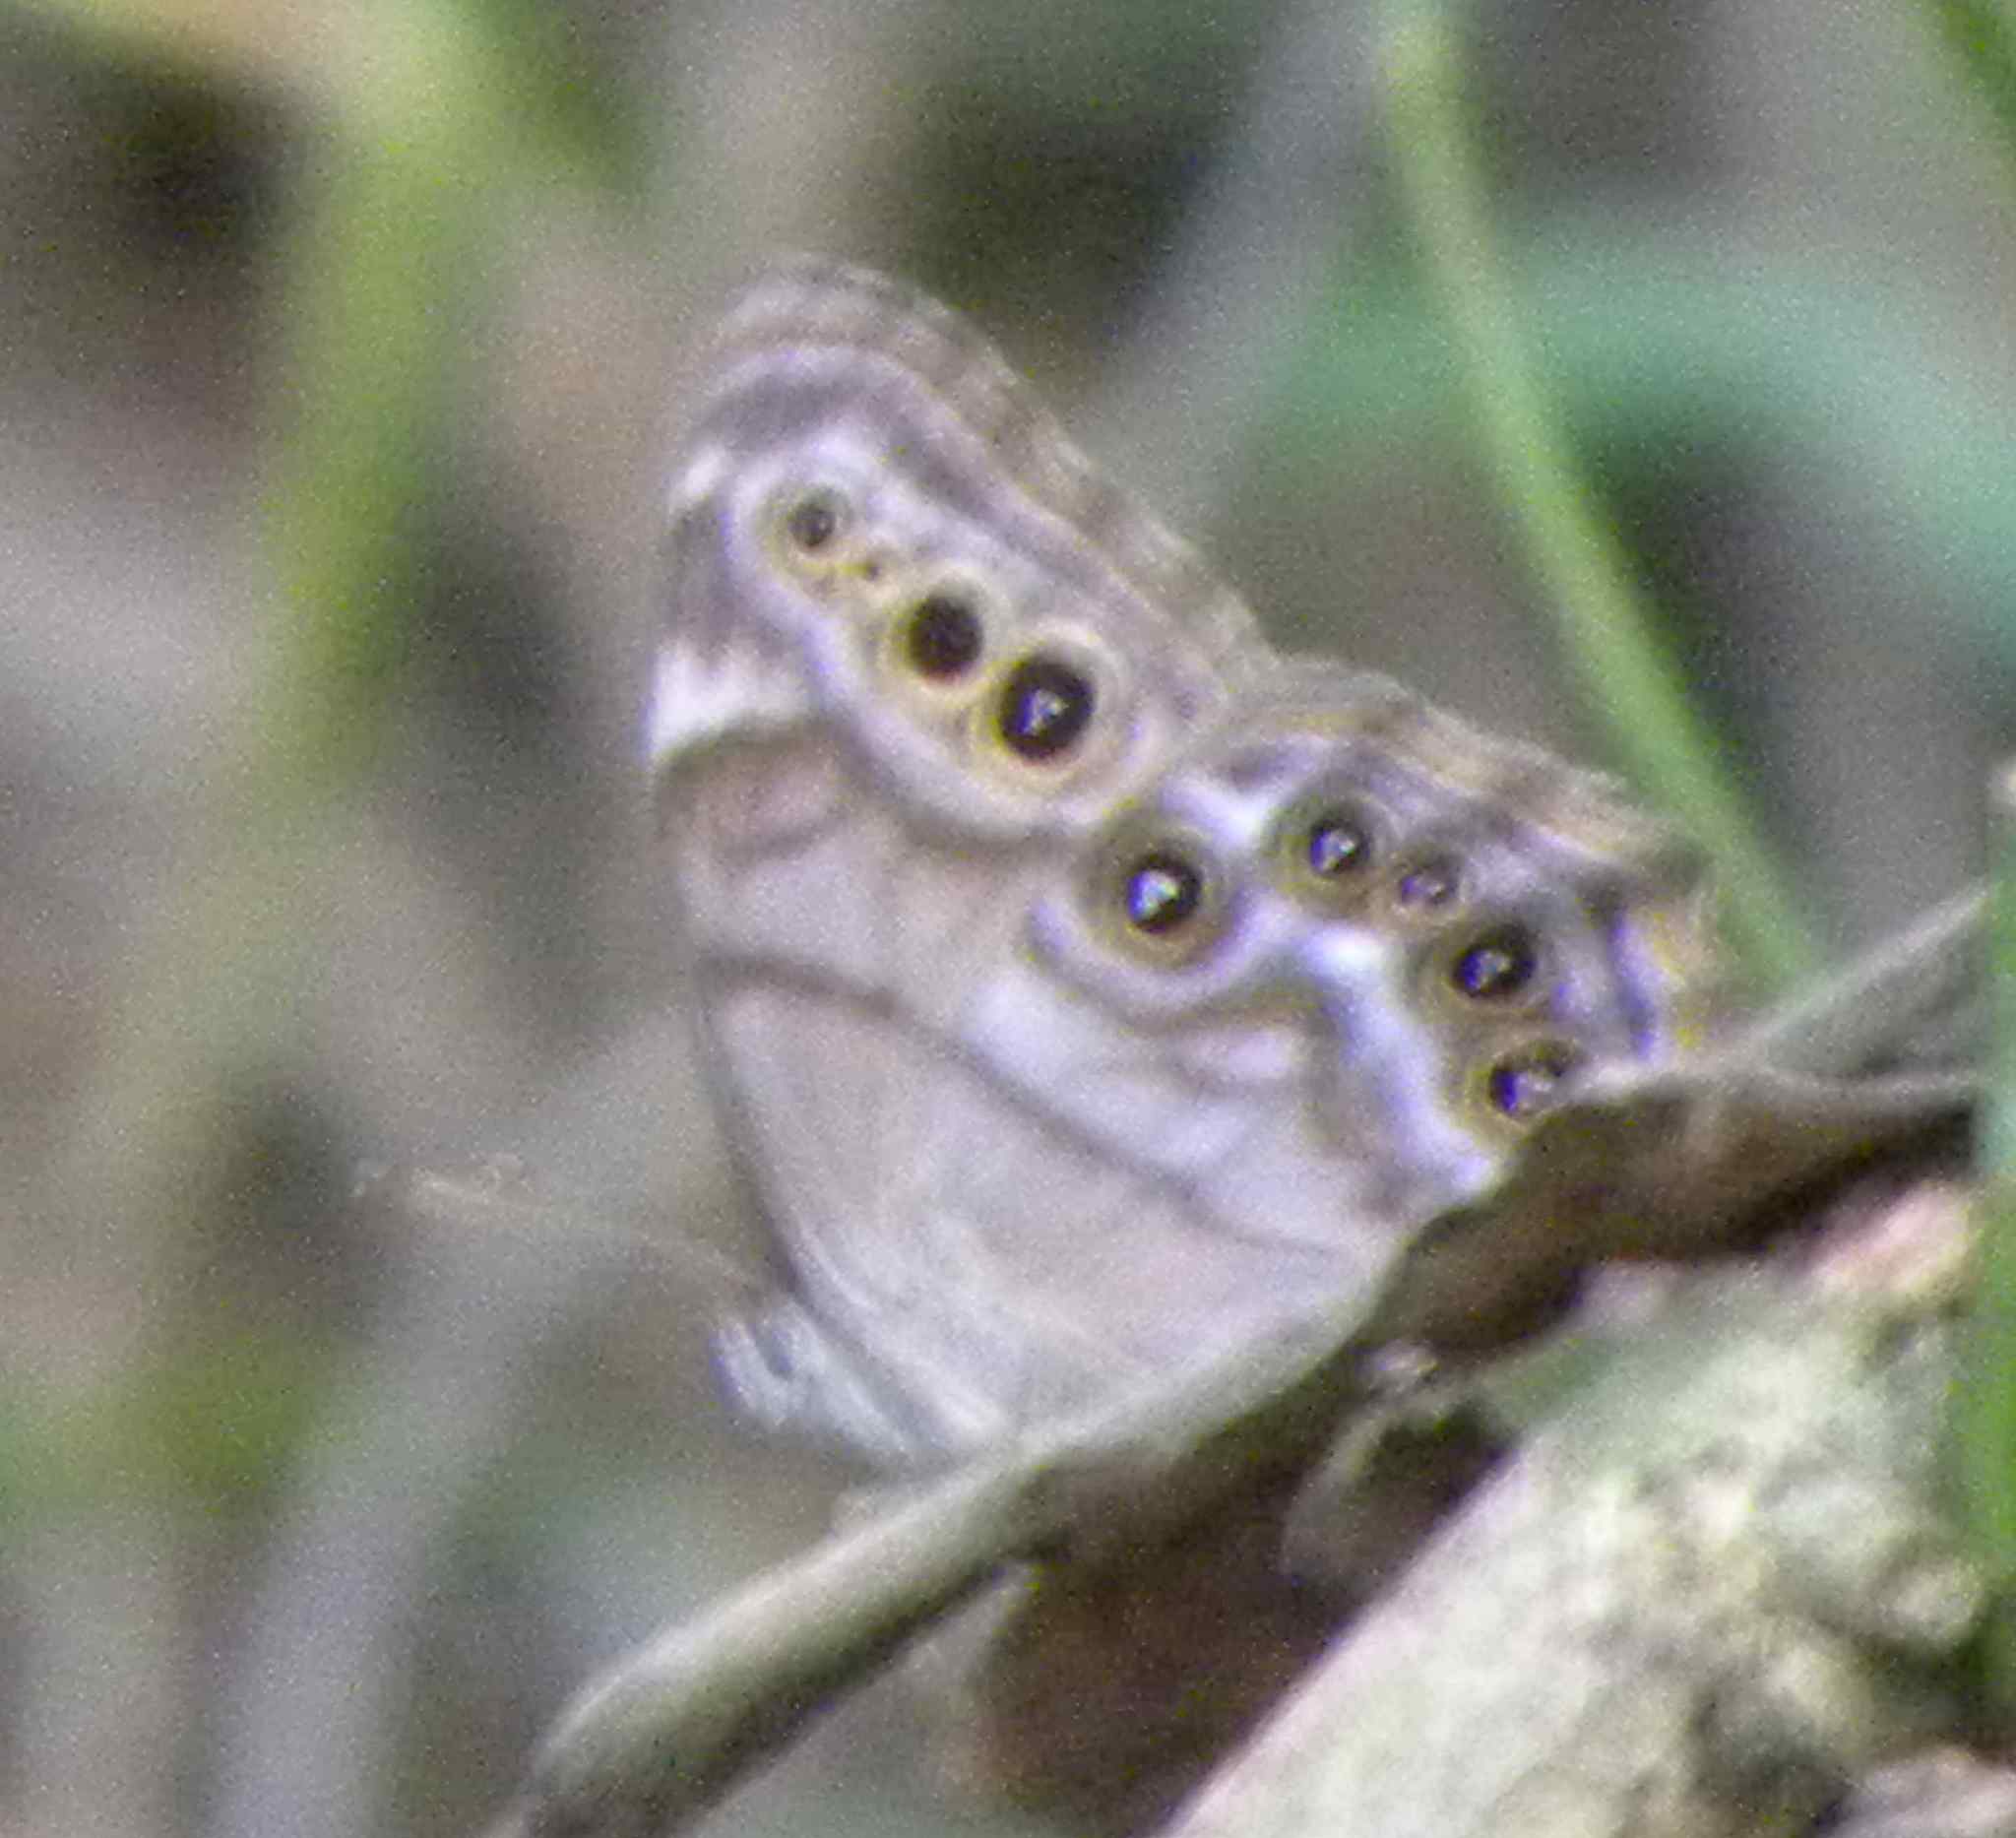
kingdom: Animalia
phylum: Arthropoda
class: Insecta
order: Lepidoptera
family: Nymphalidae
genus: Lethe
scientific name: Lethe anthedon
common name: Northern pearly-eye
